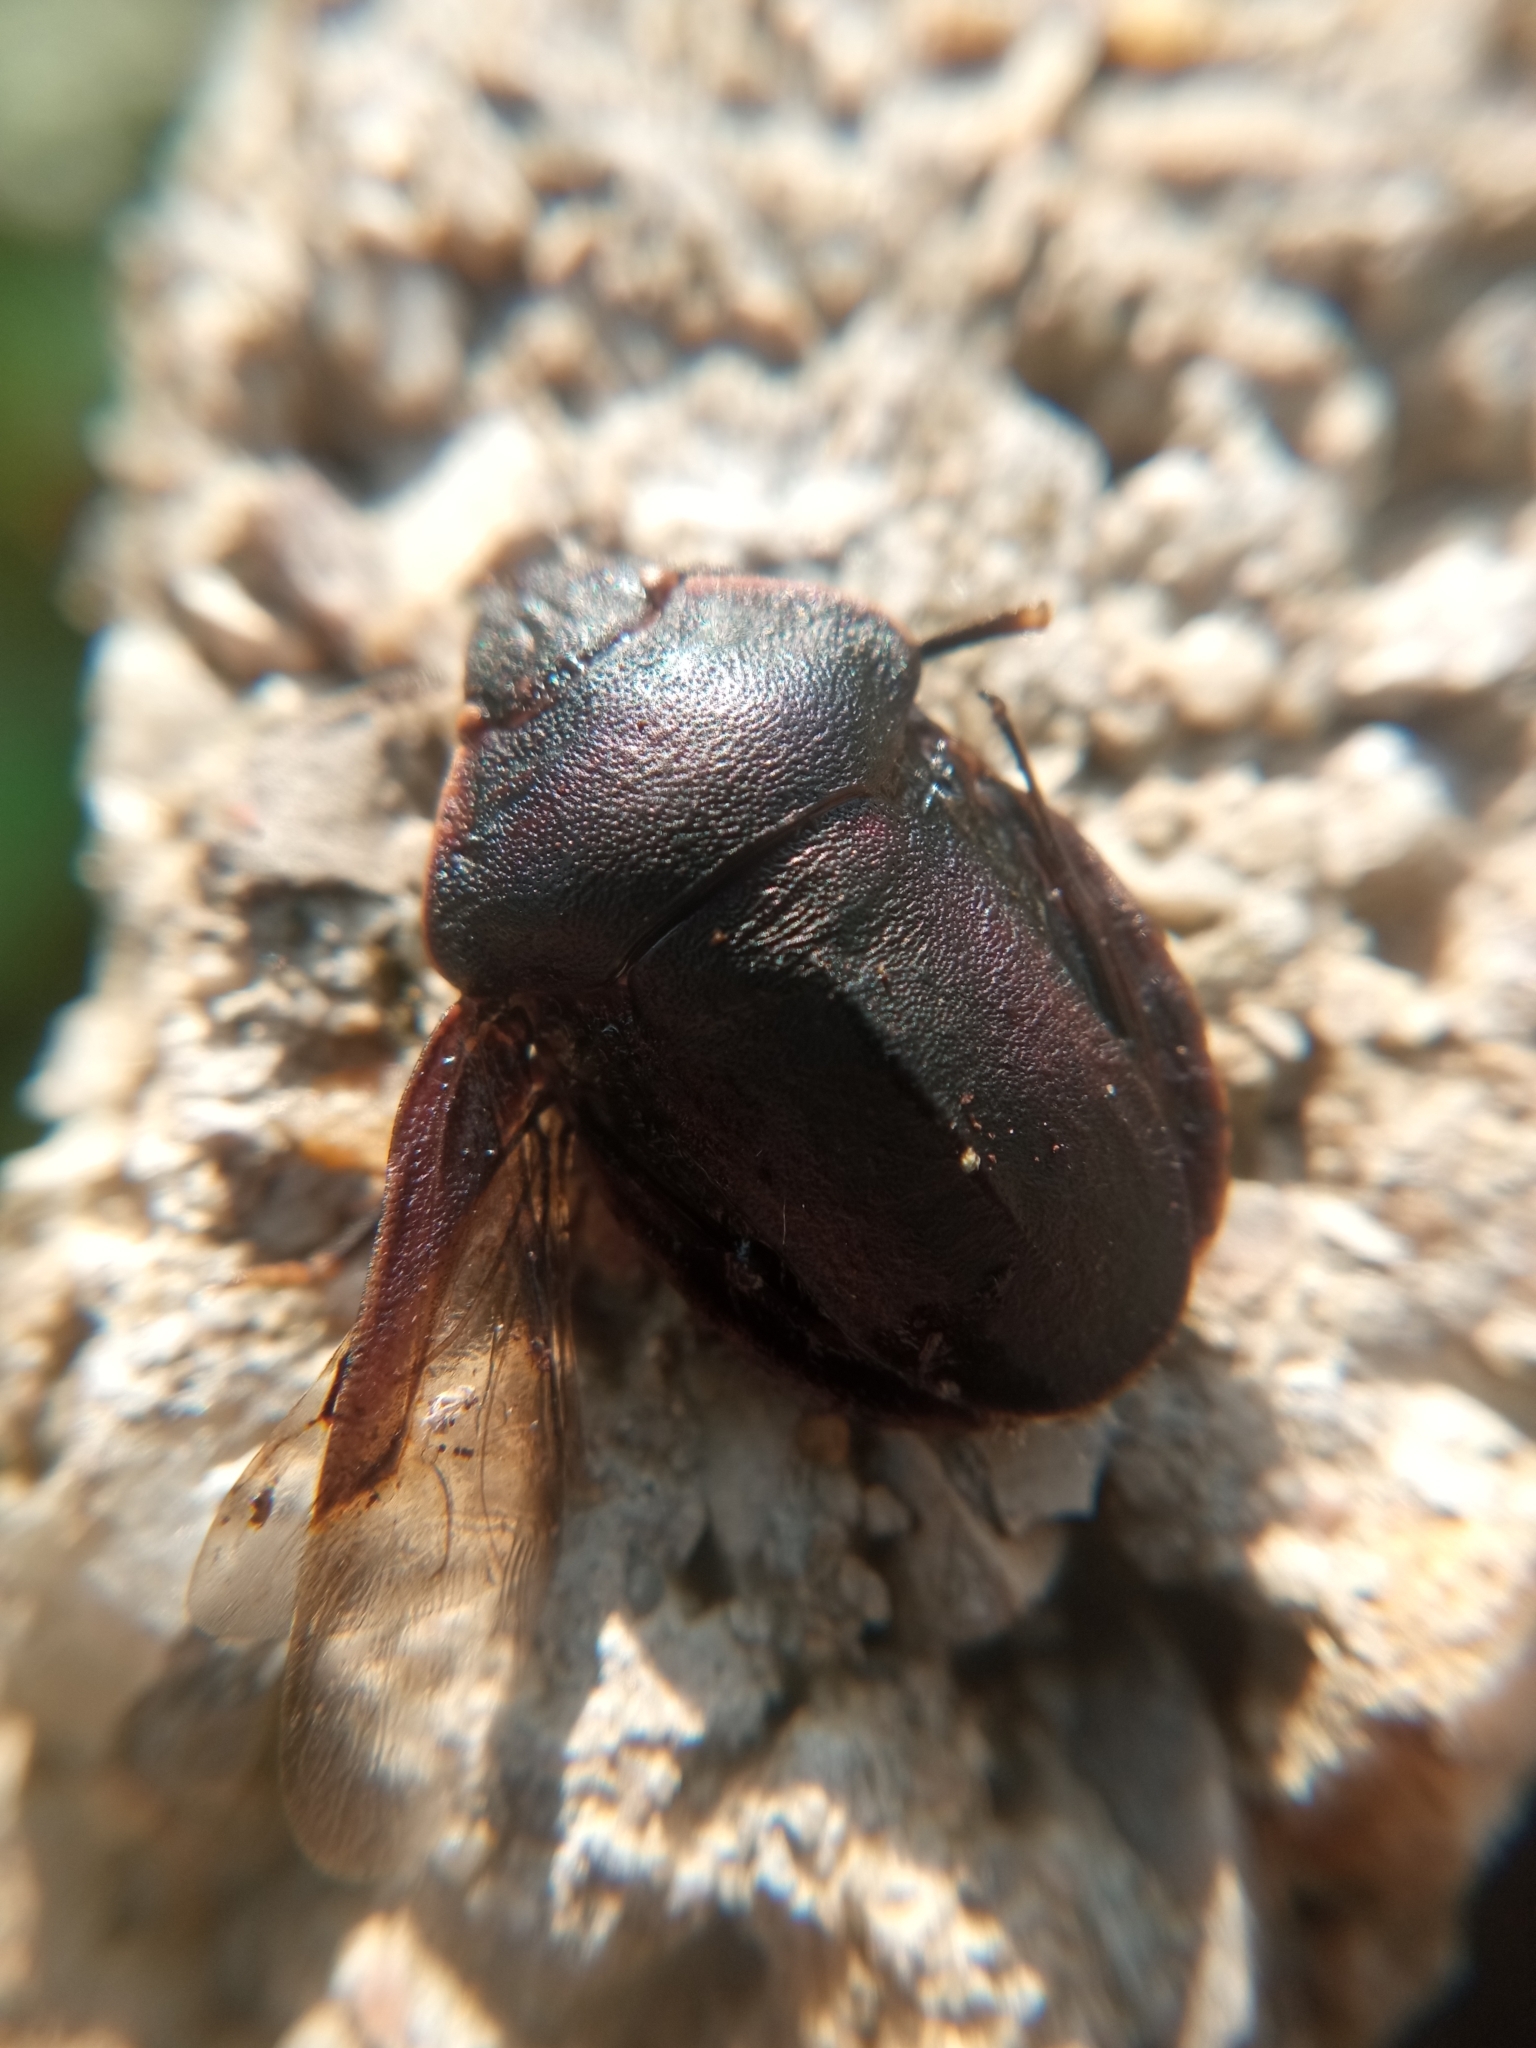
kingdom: Animalia
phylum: Arthropoda
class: Insecta
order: Hemiptera
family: Scutelleridae
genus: Eurygaster
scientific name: Eurygaster austriaca
